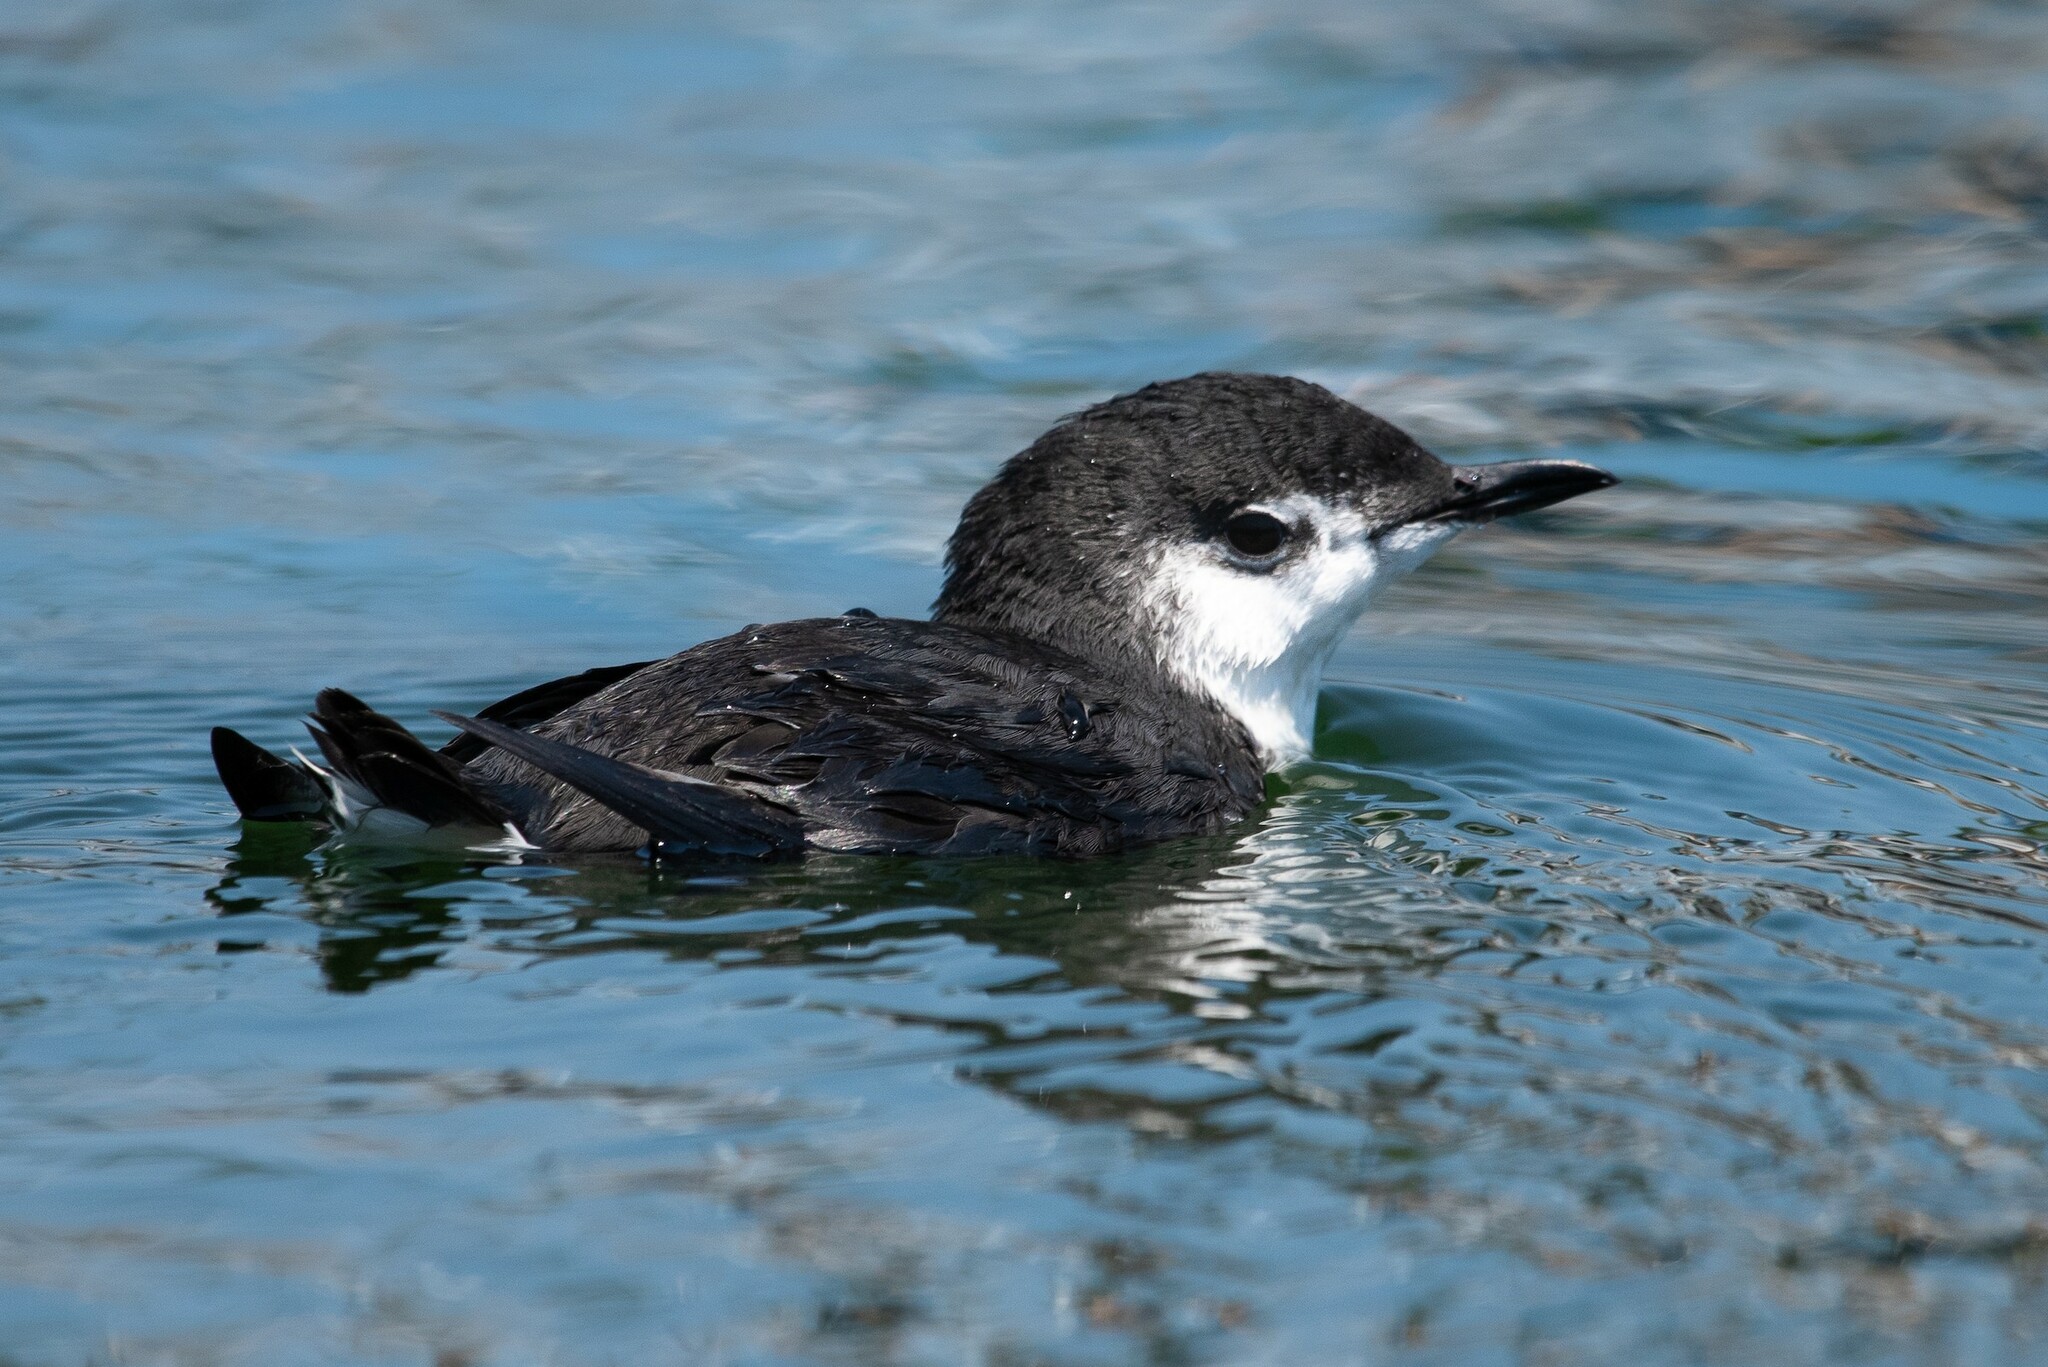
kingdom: Animalia
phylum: Chordata
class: Aves
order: Charadriiformes
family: Alcidae
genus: Synthliboramphus
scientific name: Synthliboramphus hypoleucus
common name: Guadalupe murrelet
